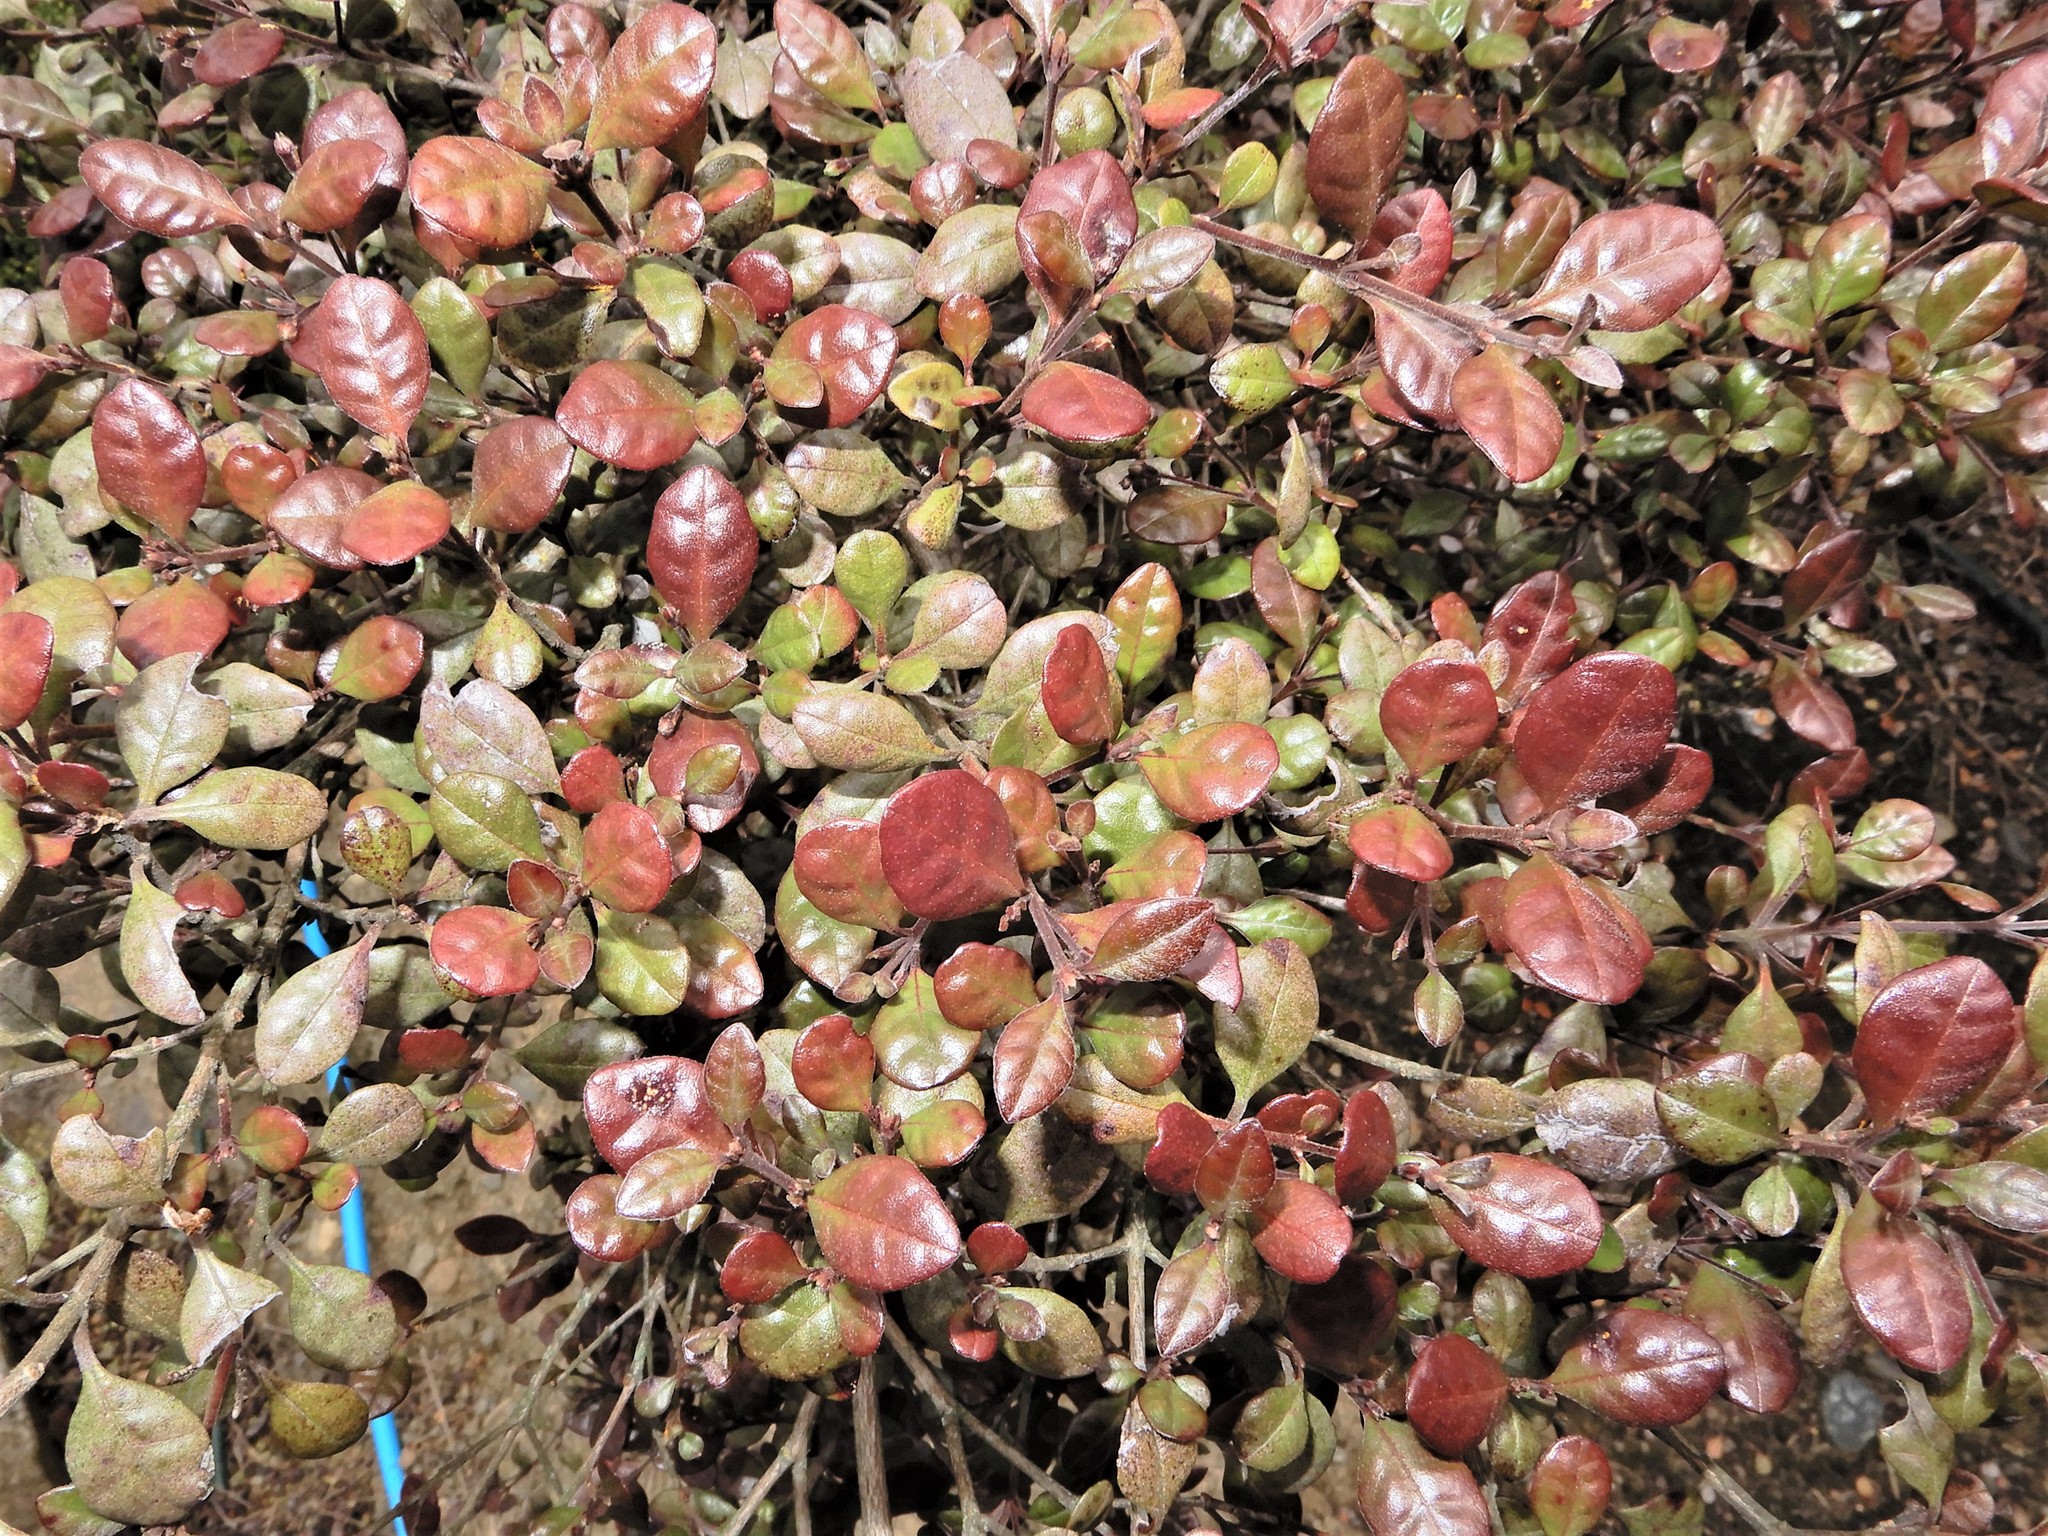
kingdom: Plantae
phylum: Tracheophyta
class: Magnoliopsida
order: Myrtales
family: Myrtaceae
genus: Lophomyrtus
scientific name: Lophomyrtus bullata
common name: Rama rama
